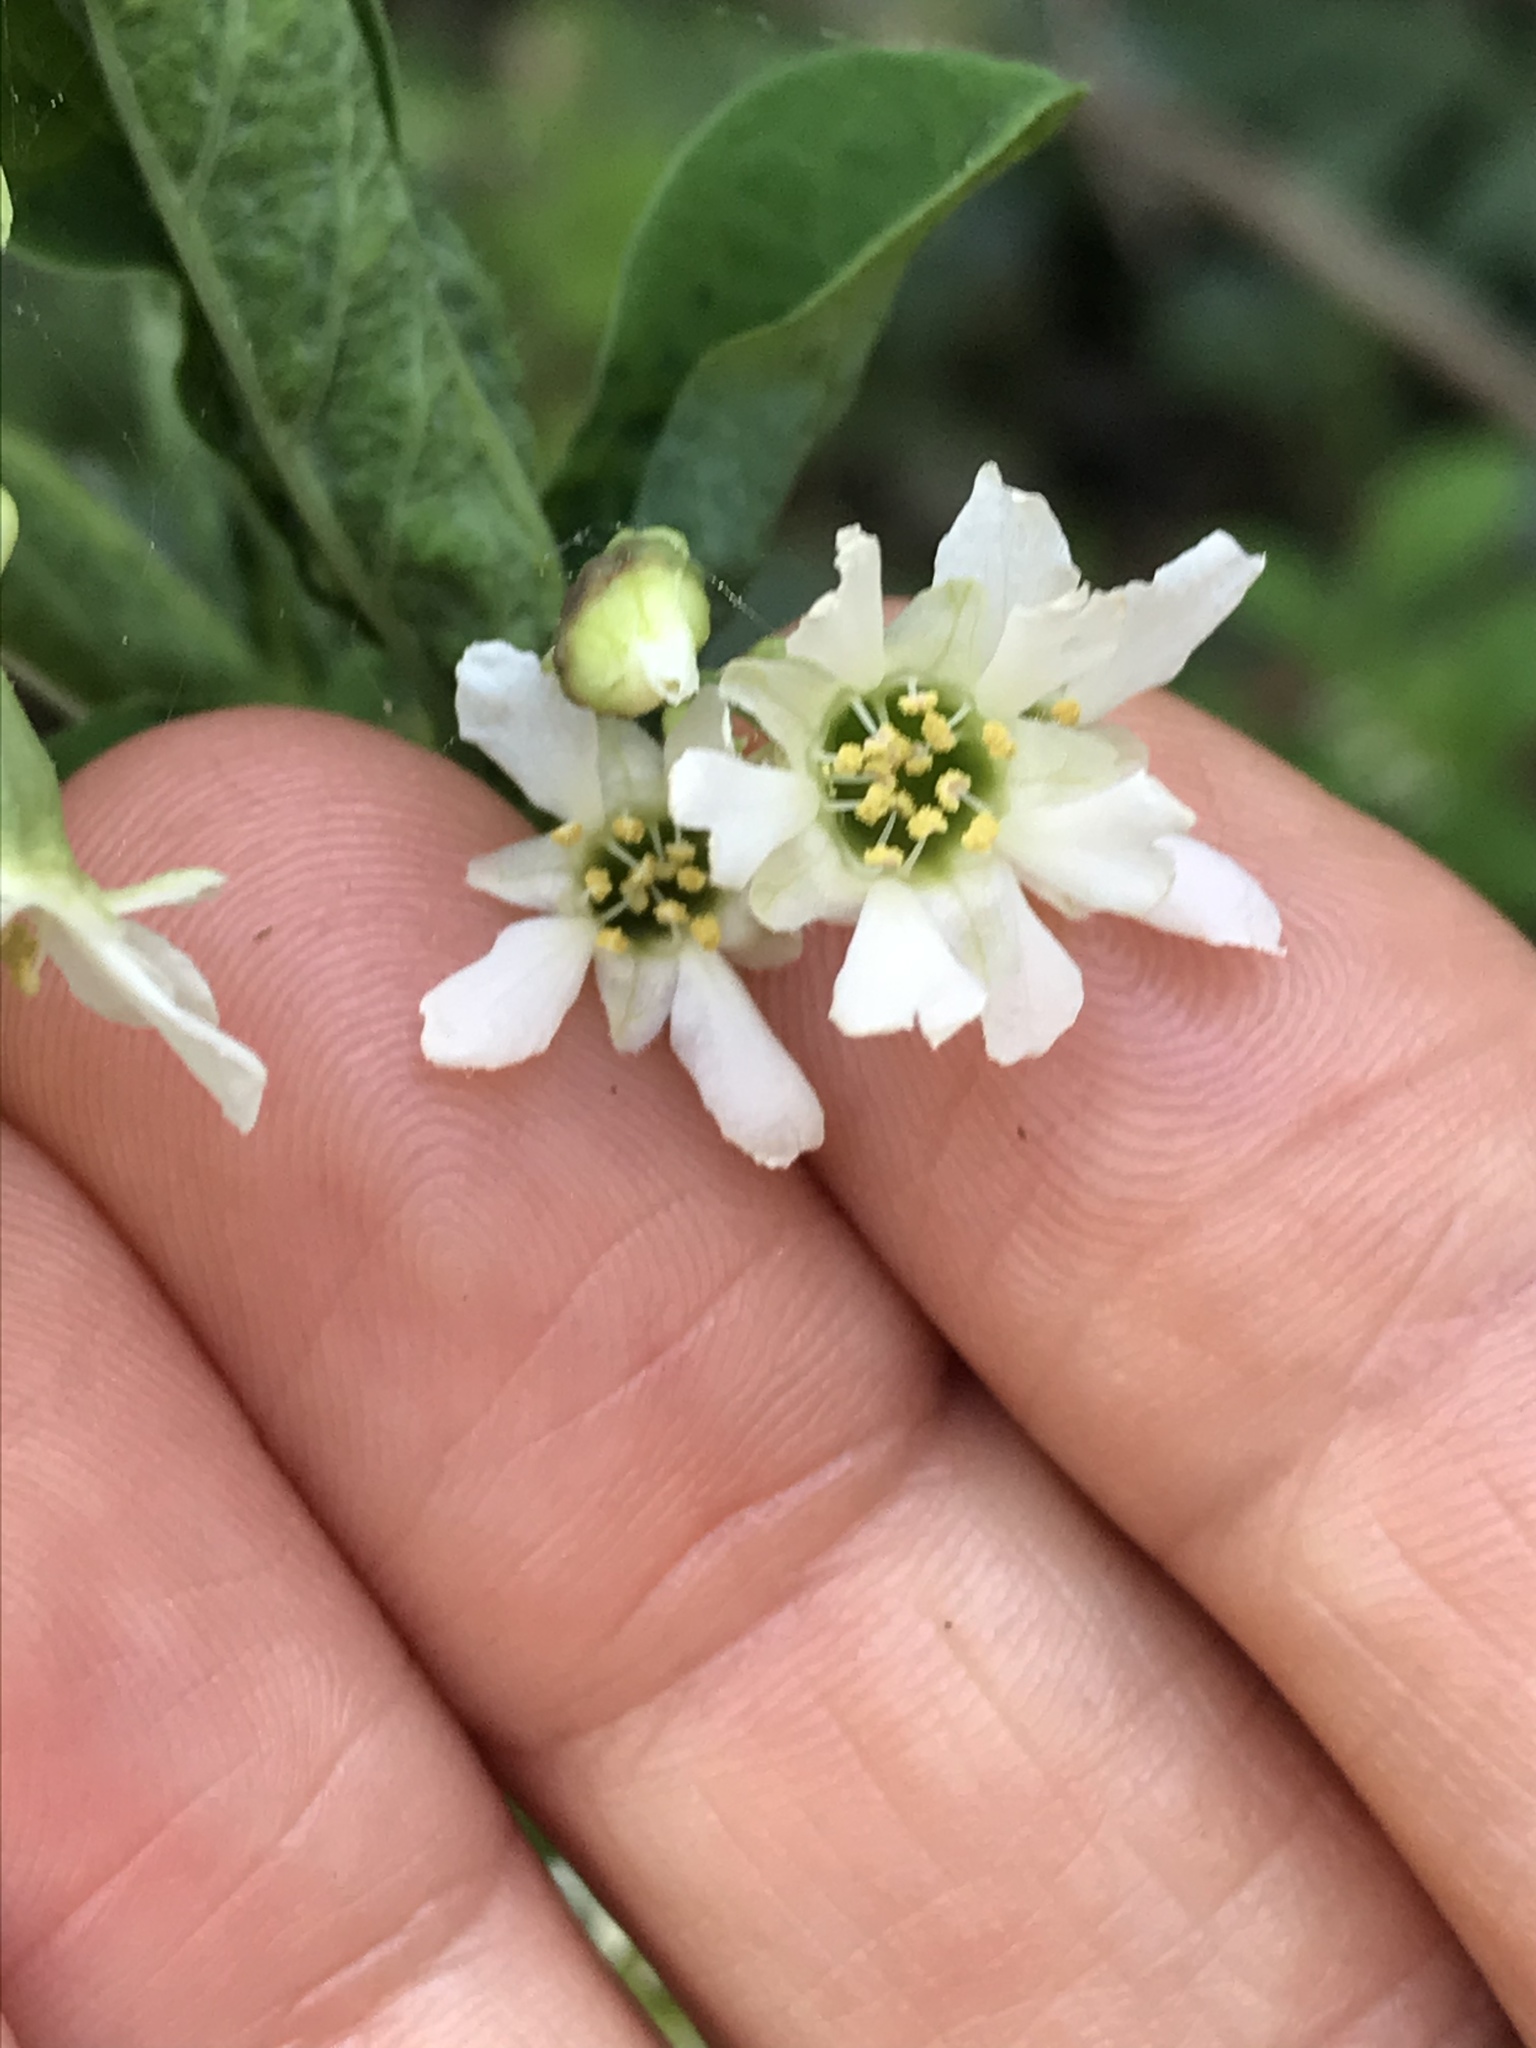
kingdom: Plantae
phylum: Tracheophyta
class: Magnoliopsida
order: Rosales
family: Rosaceae
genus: Oemleria
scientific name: Oemleria cerasiformis
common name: Osoberry
